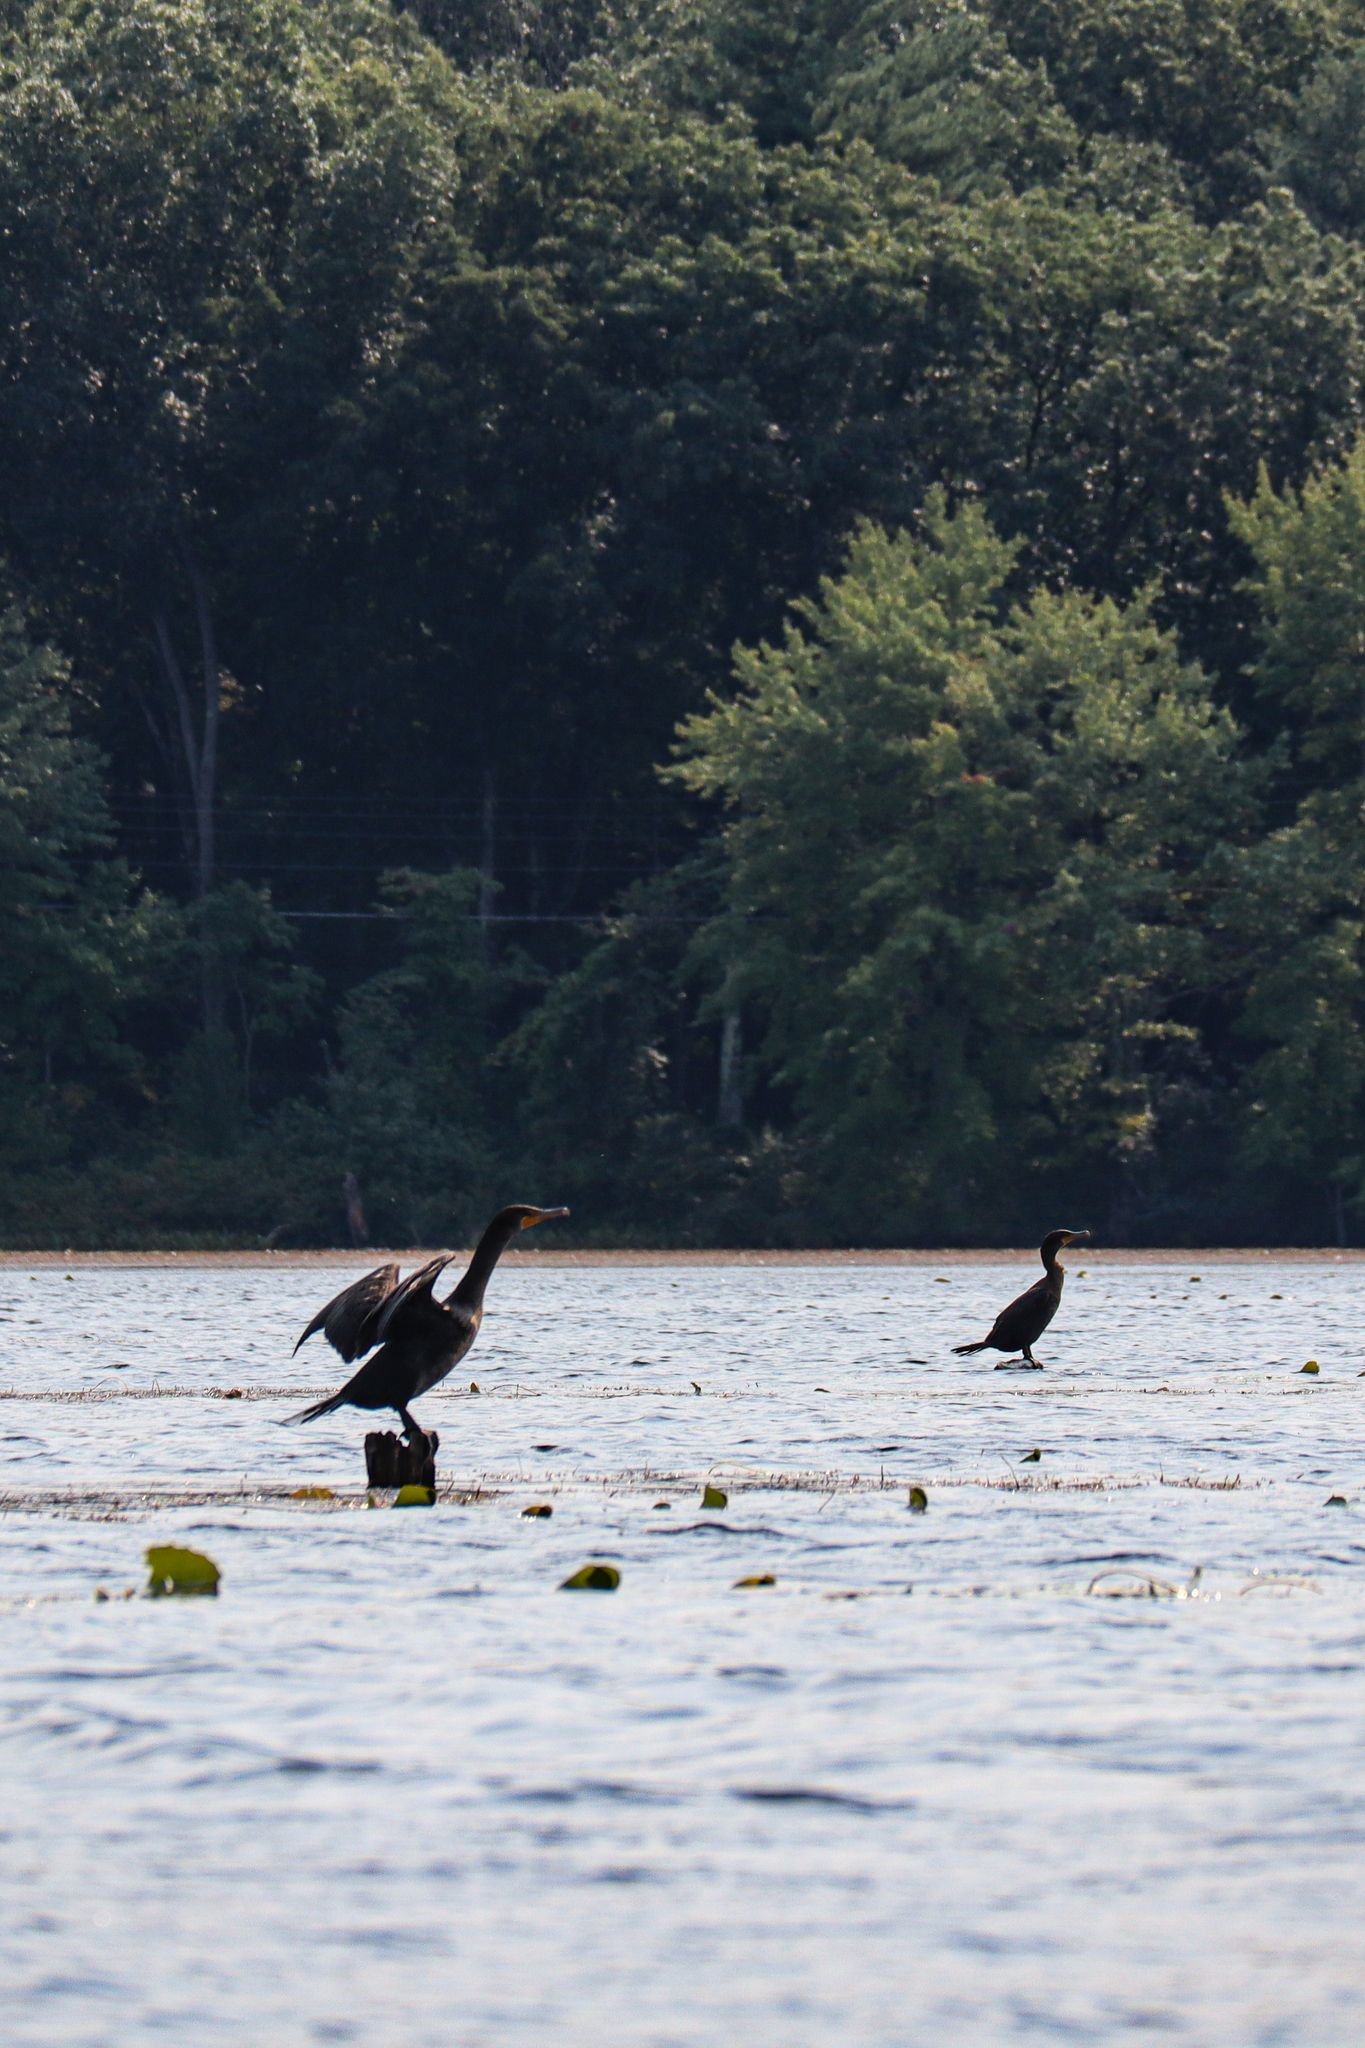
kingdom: Animalia
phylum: Chordata
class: Aves
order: Suliformes
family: Phalacrocoracidae
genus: Phalacrocorax
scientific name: Phalacrocorax auritus
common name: Double-crested cormorant
